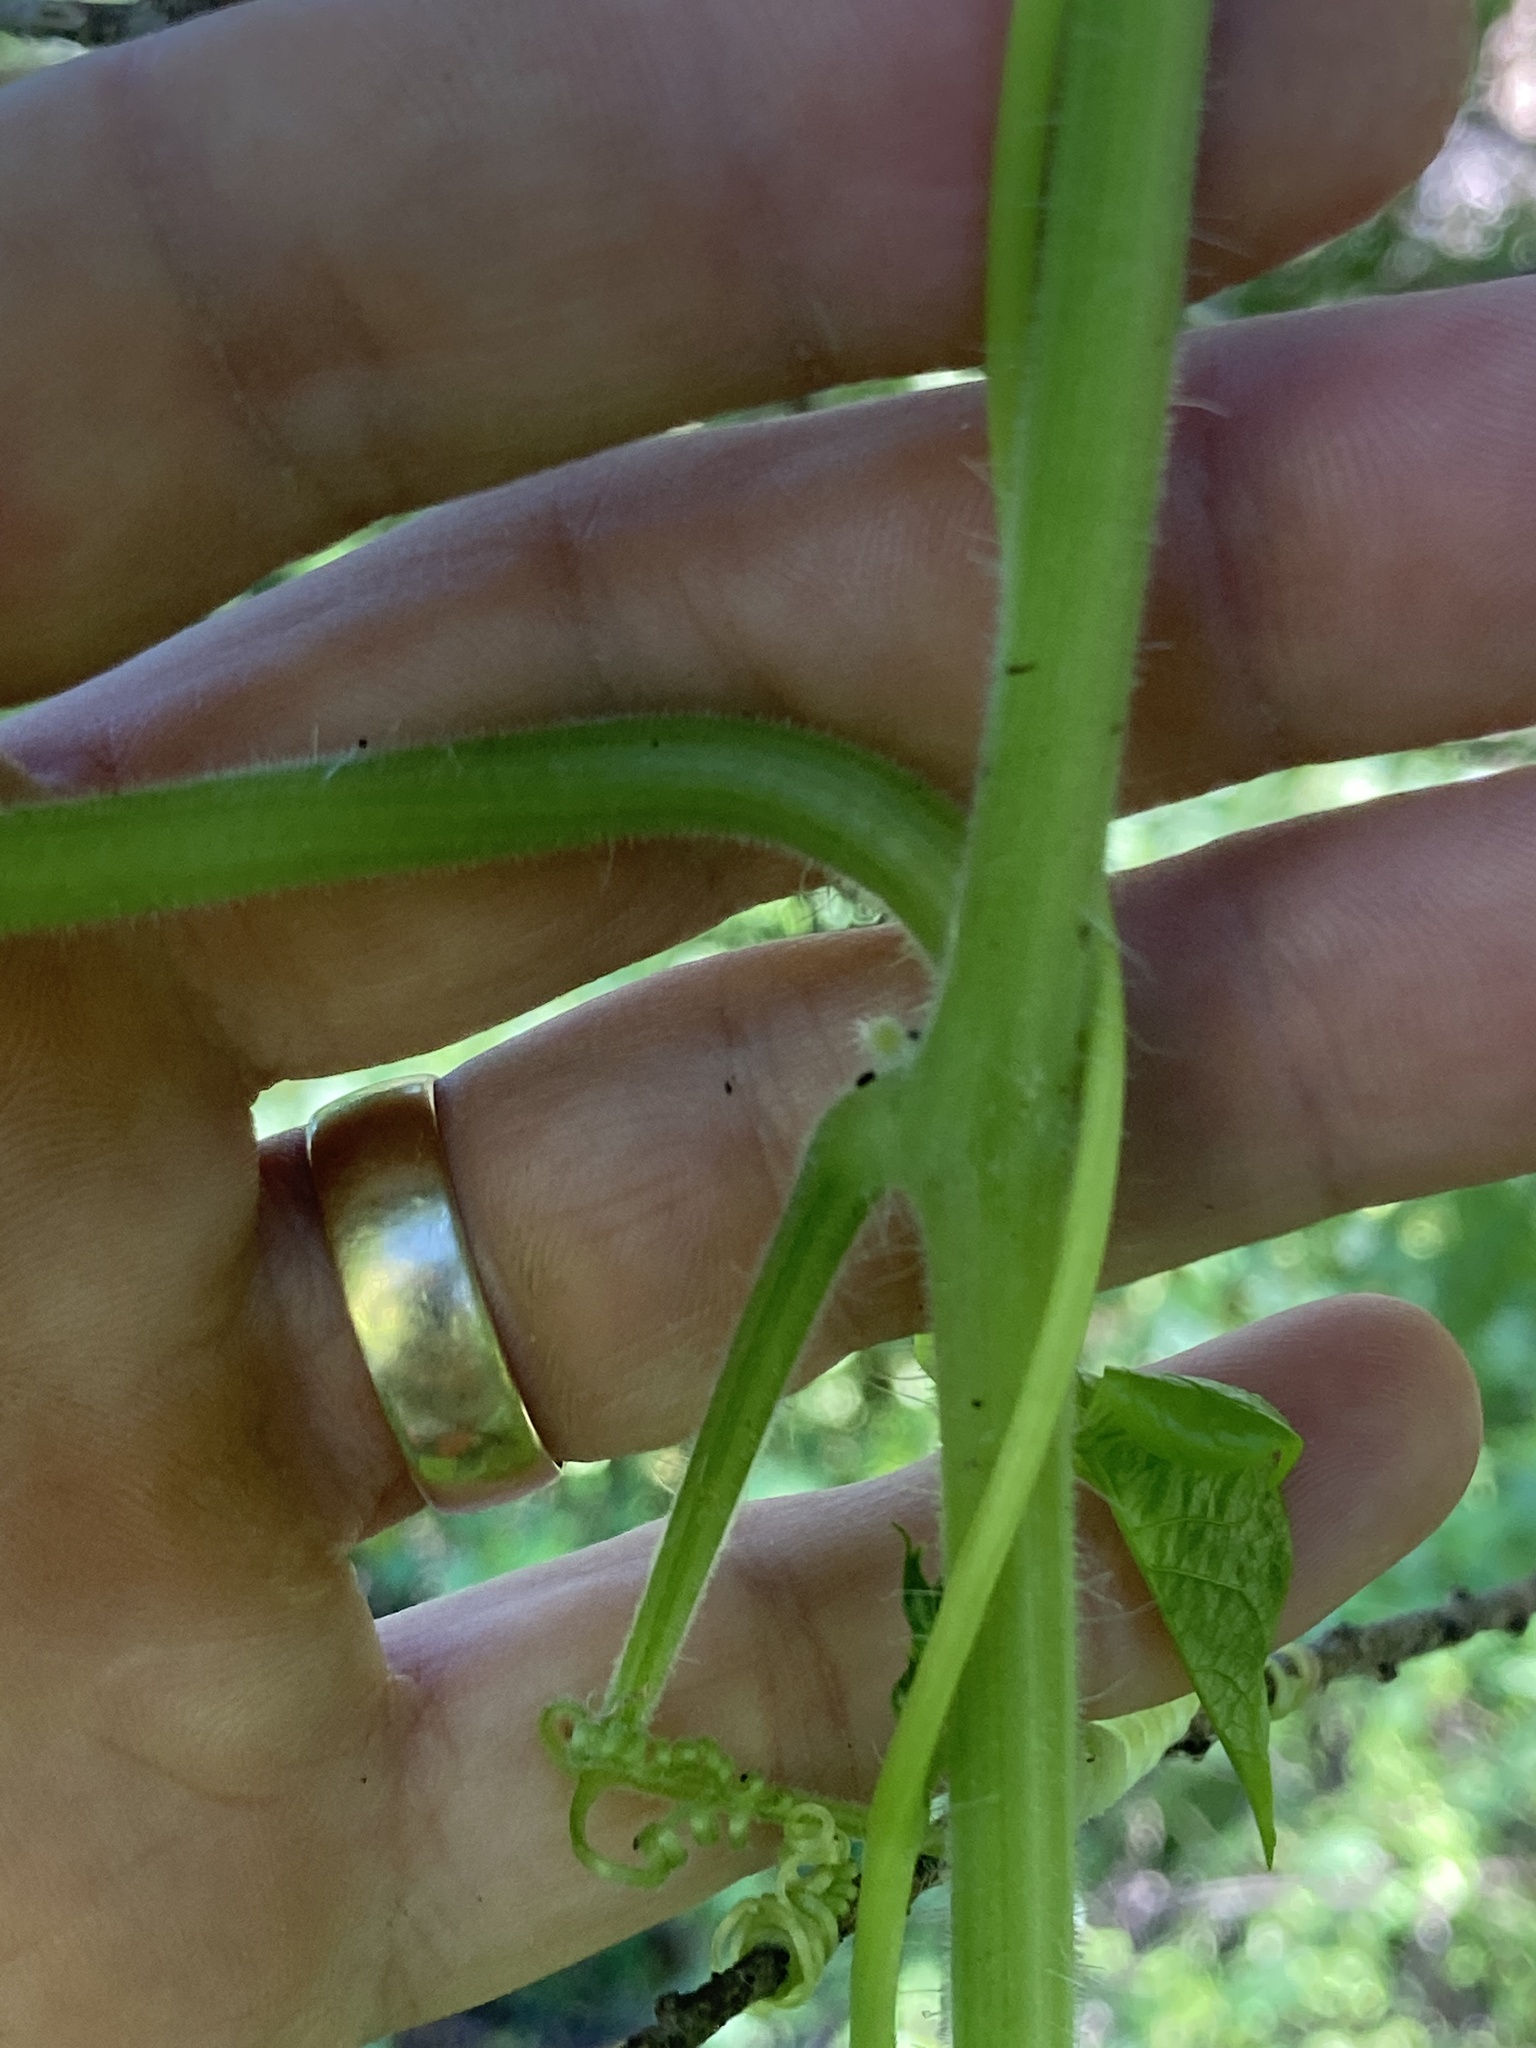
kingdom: Plantae
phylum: Tracheophyta
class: Magnoliopsida
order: Cucurbitales
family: Cucurbitaceae
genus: Sicyos
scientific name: Sicyos angulatus
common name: Angled burr cucumber
